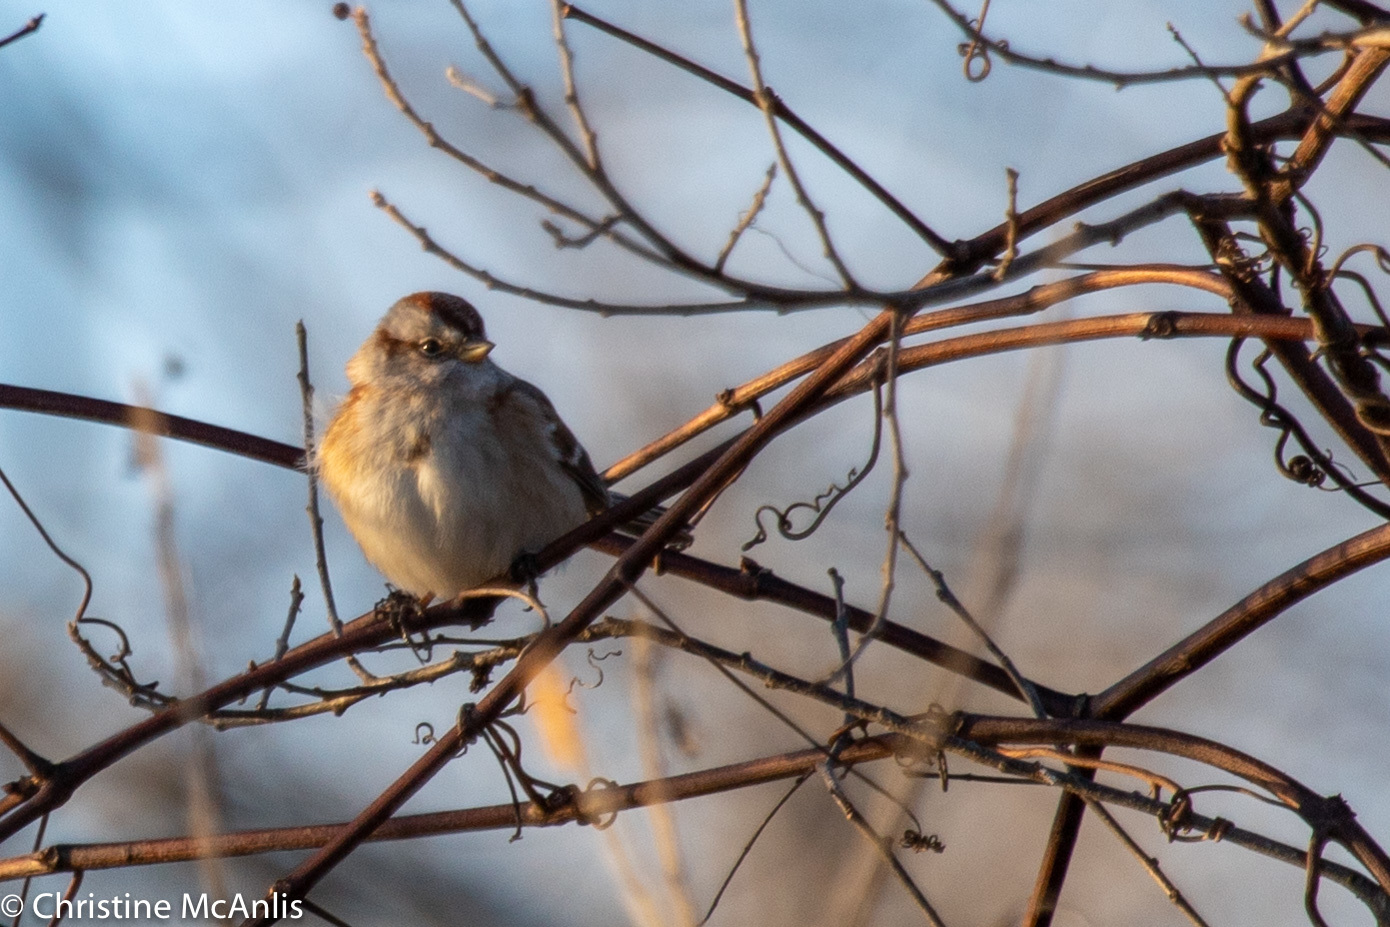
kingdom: Animalia
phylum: Chordata
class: Aves
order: Passeriformes
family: Passerellidae
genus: Spizelloides
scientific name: Spizelloides arborea
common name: American tree sparrow
